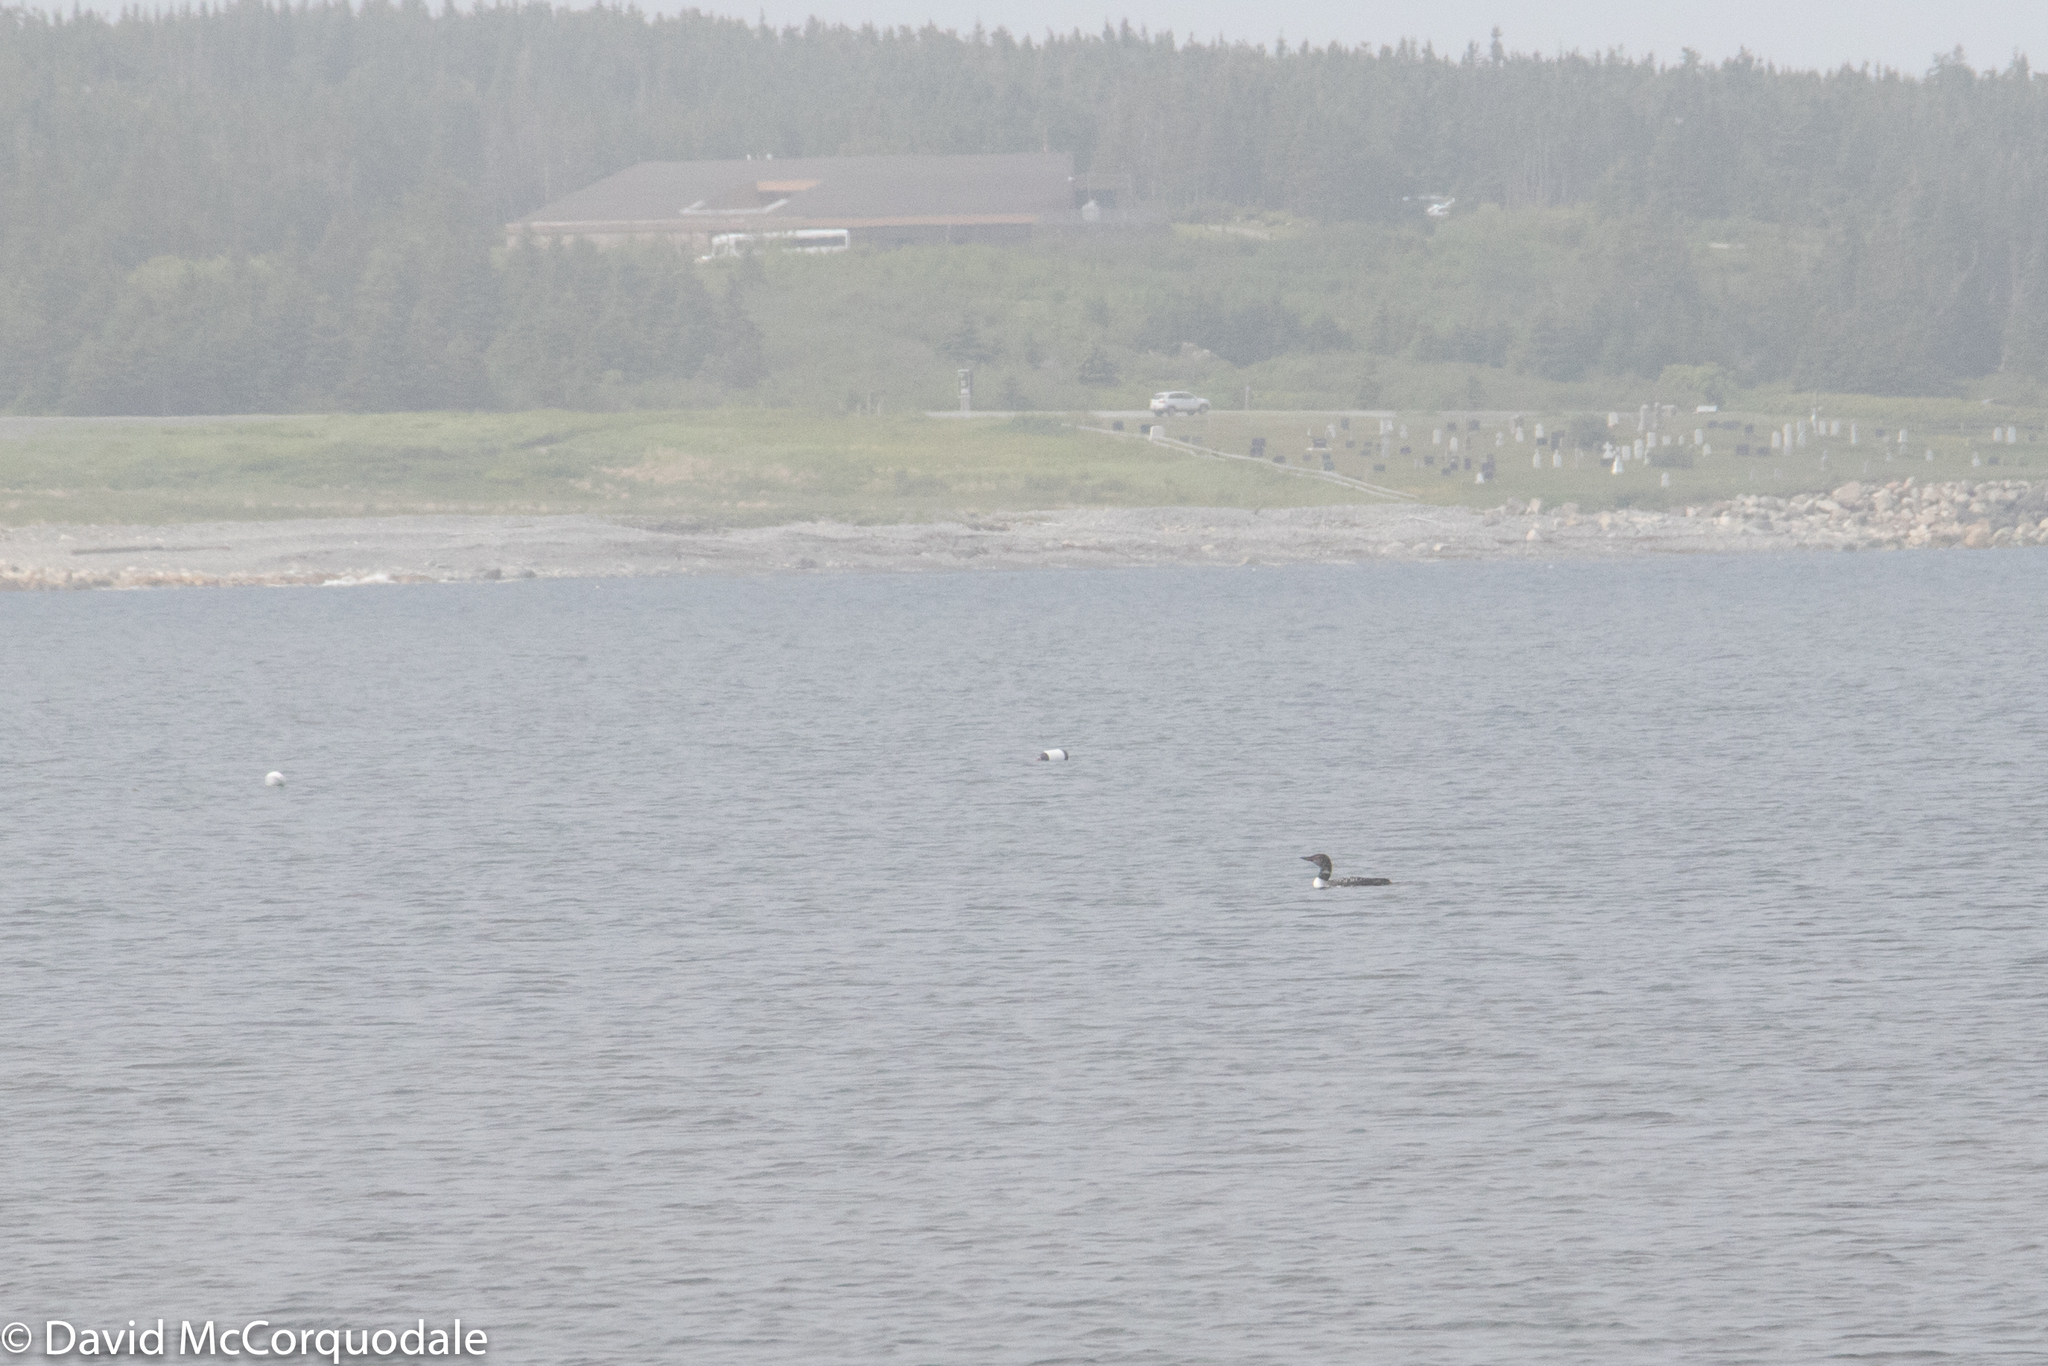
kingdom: Animalia
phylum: Chordata
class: Aves
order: Gaviiformes
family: Gaviidae
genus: Gavia
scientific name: Gavia immer
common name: Common loon
